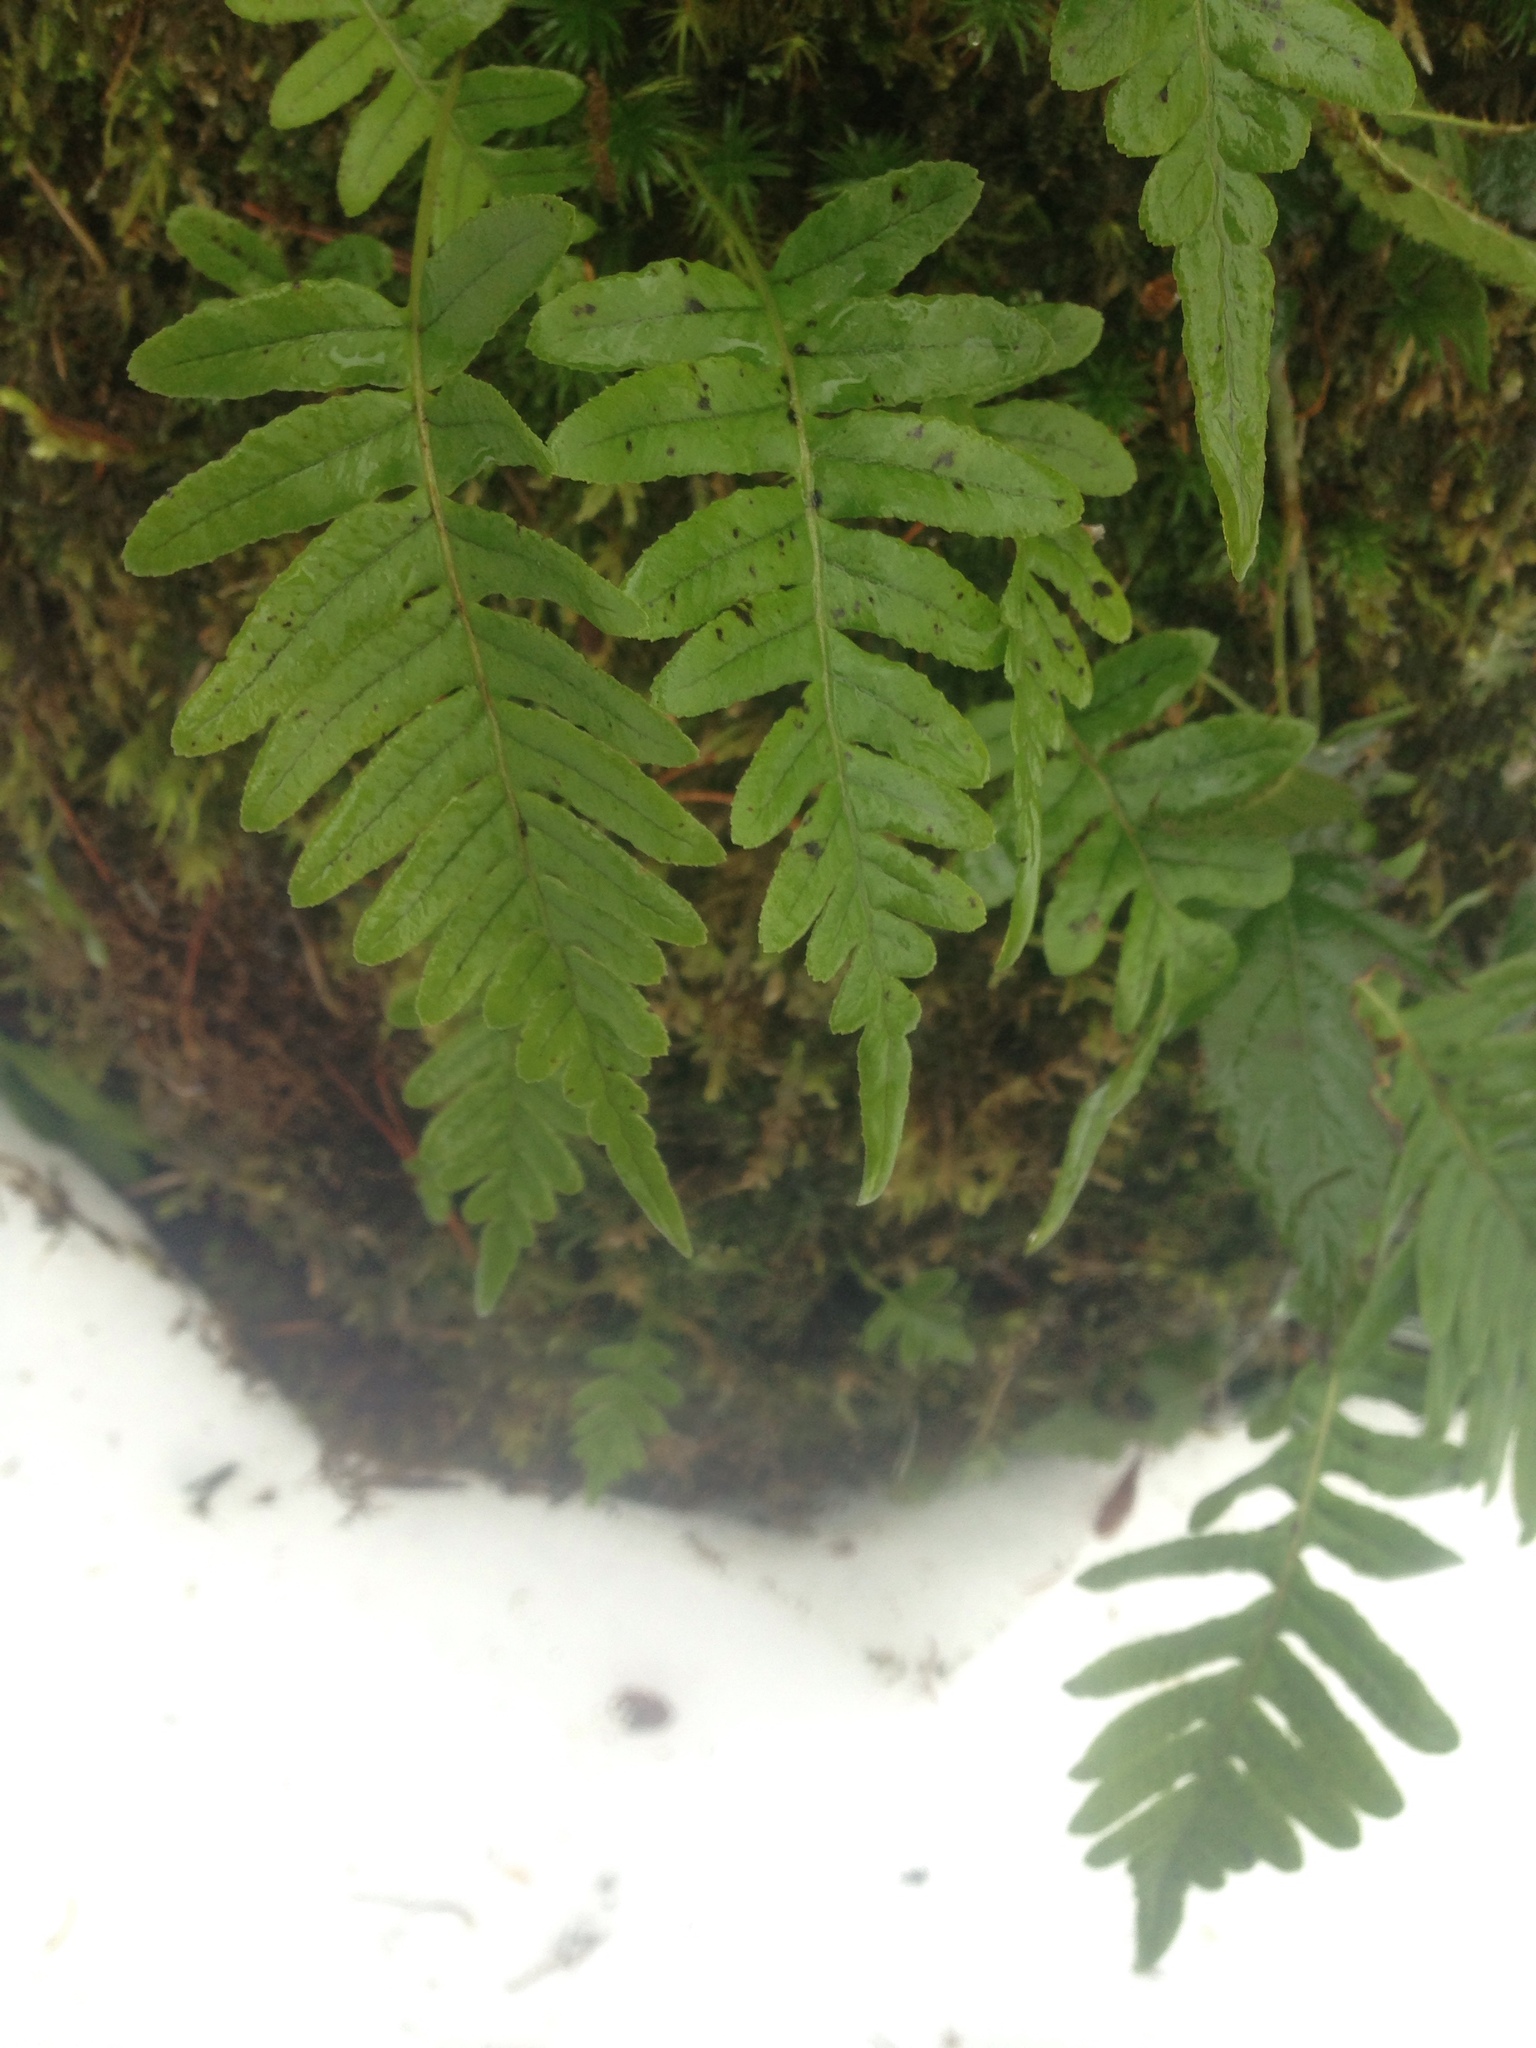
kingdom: Plantae
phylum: Tracheophyta
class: Polypodiopsida
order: Polypodiales
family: Polypodiaceae
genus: Polypodium
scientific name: Polypodium glycyrrhiza
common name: Licorice fern
